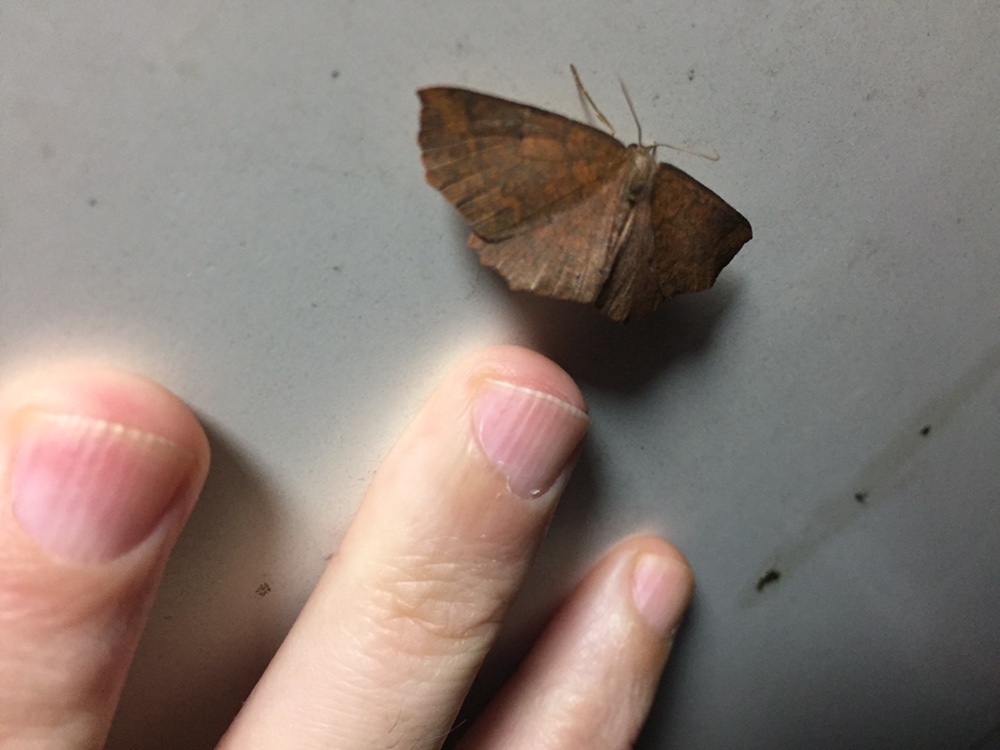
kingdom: Animalia
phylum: Arthropoda
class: Insecta
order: Lepidoptera
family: Geometridae
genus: Xyridacma
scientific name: Xyridacma ustaria
